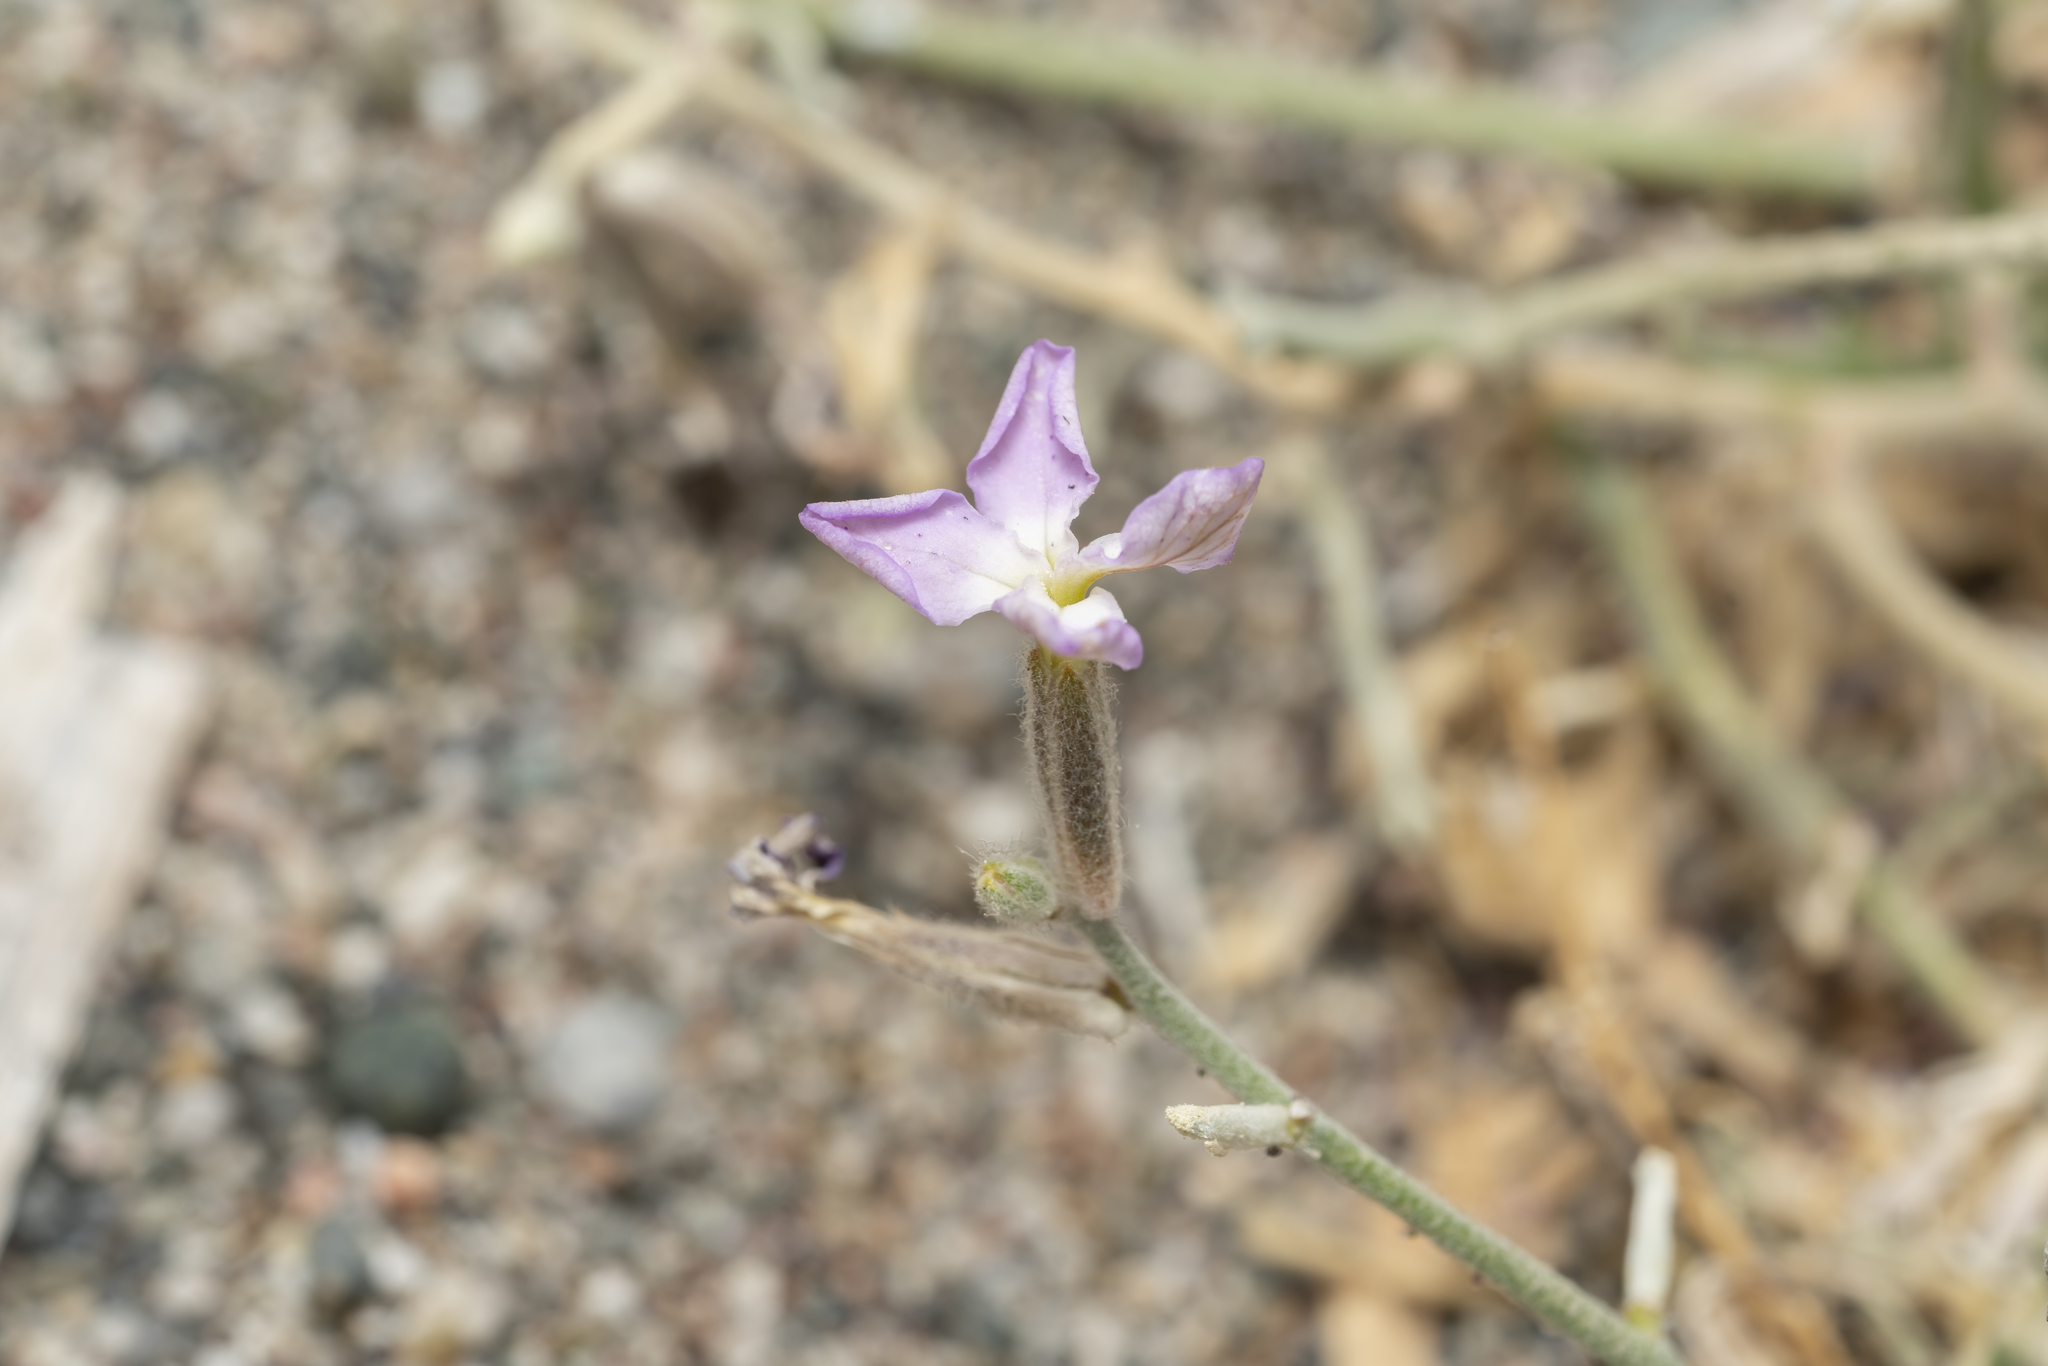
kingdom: Plantae
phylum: Tracheophyta
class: Magnoliopsida
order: Brassicales
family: Brassicaceae
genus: Matthiola
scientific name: Matthiola longipetala
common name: Night-scented stock
